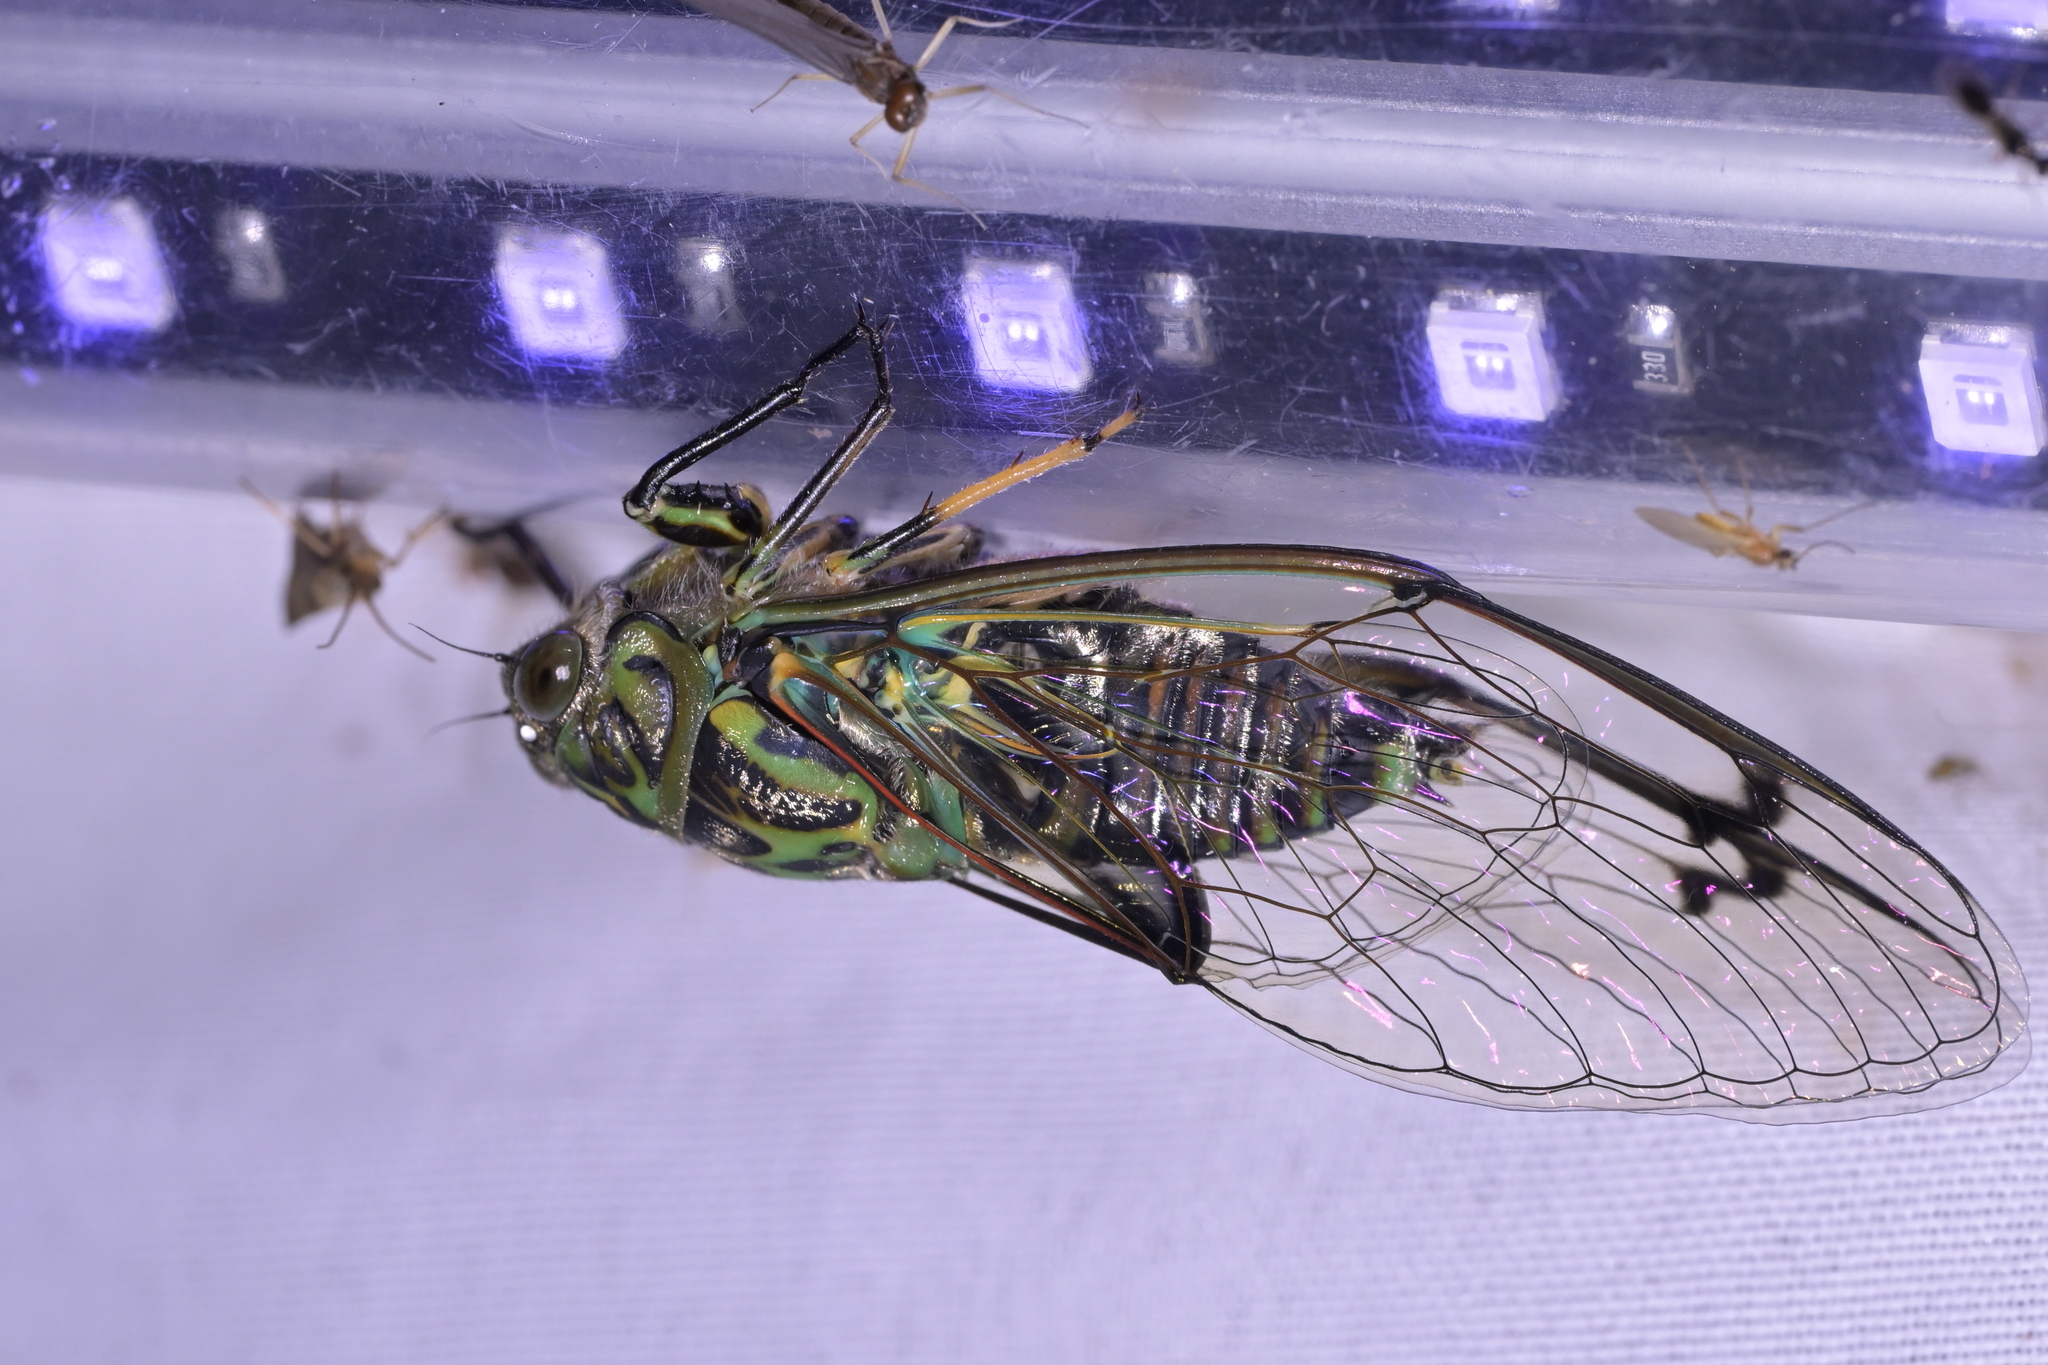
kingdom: Animalia
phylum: Arthropoda
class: Insecta
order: Hemiptera
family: Cicadidae
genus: Amphipsalta
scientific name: Amphipsalta zelandica
